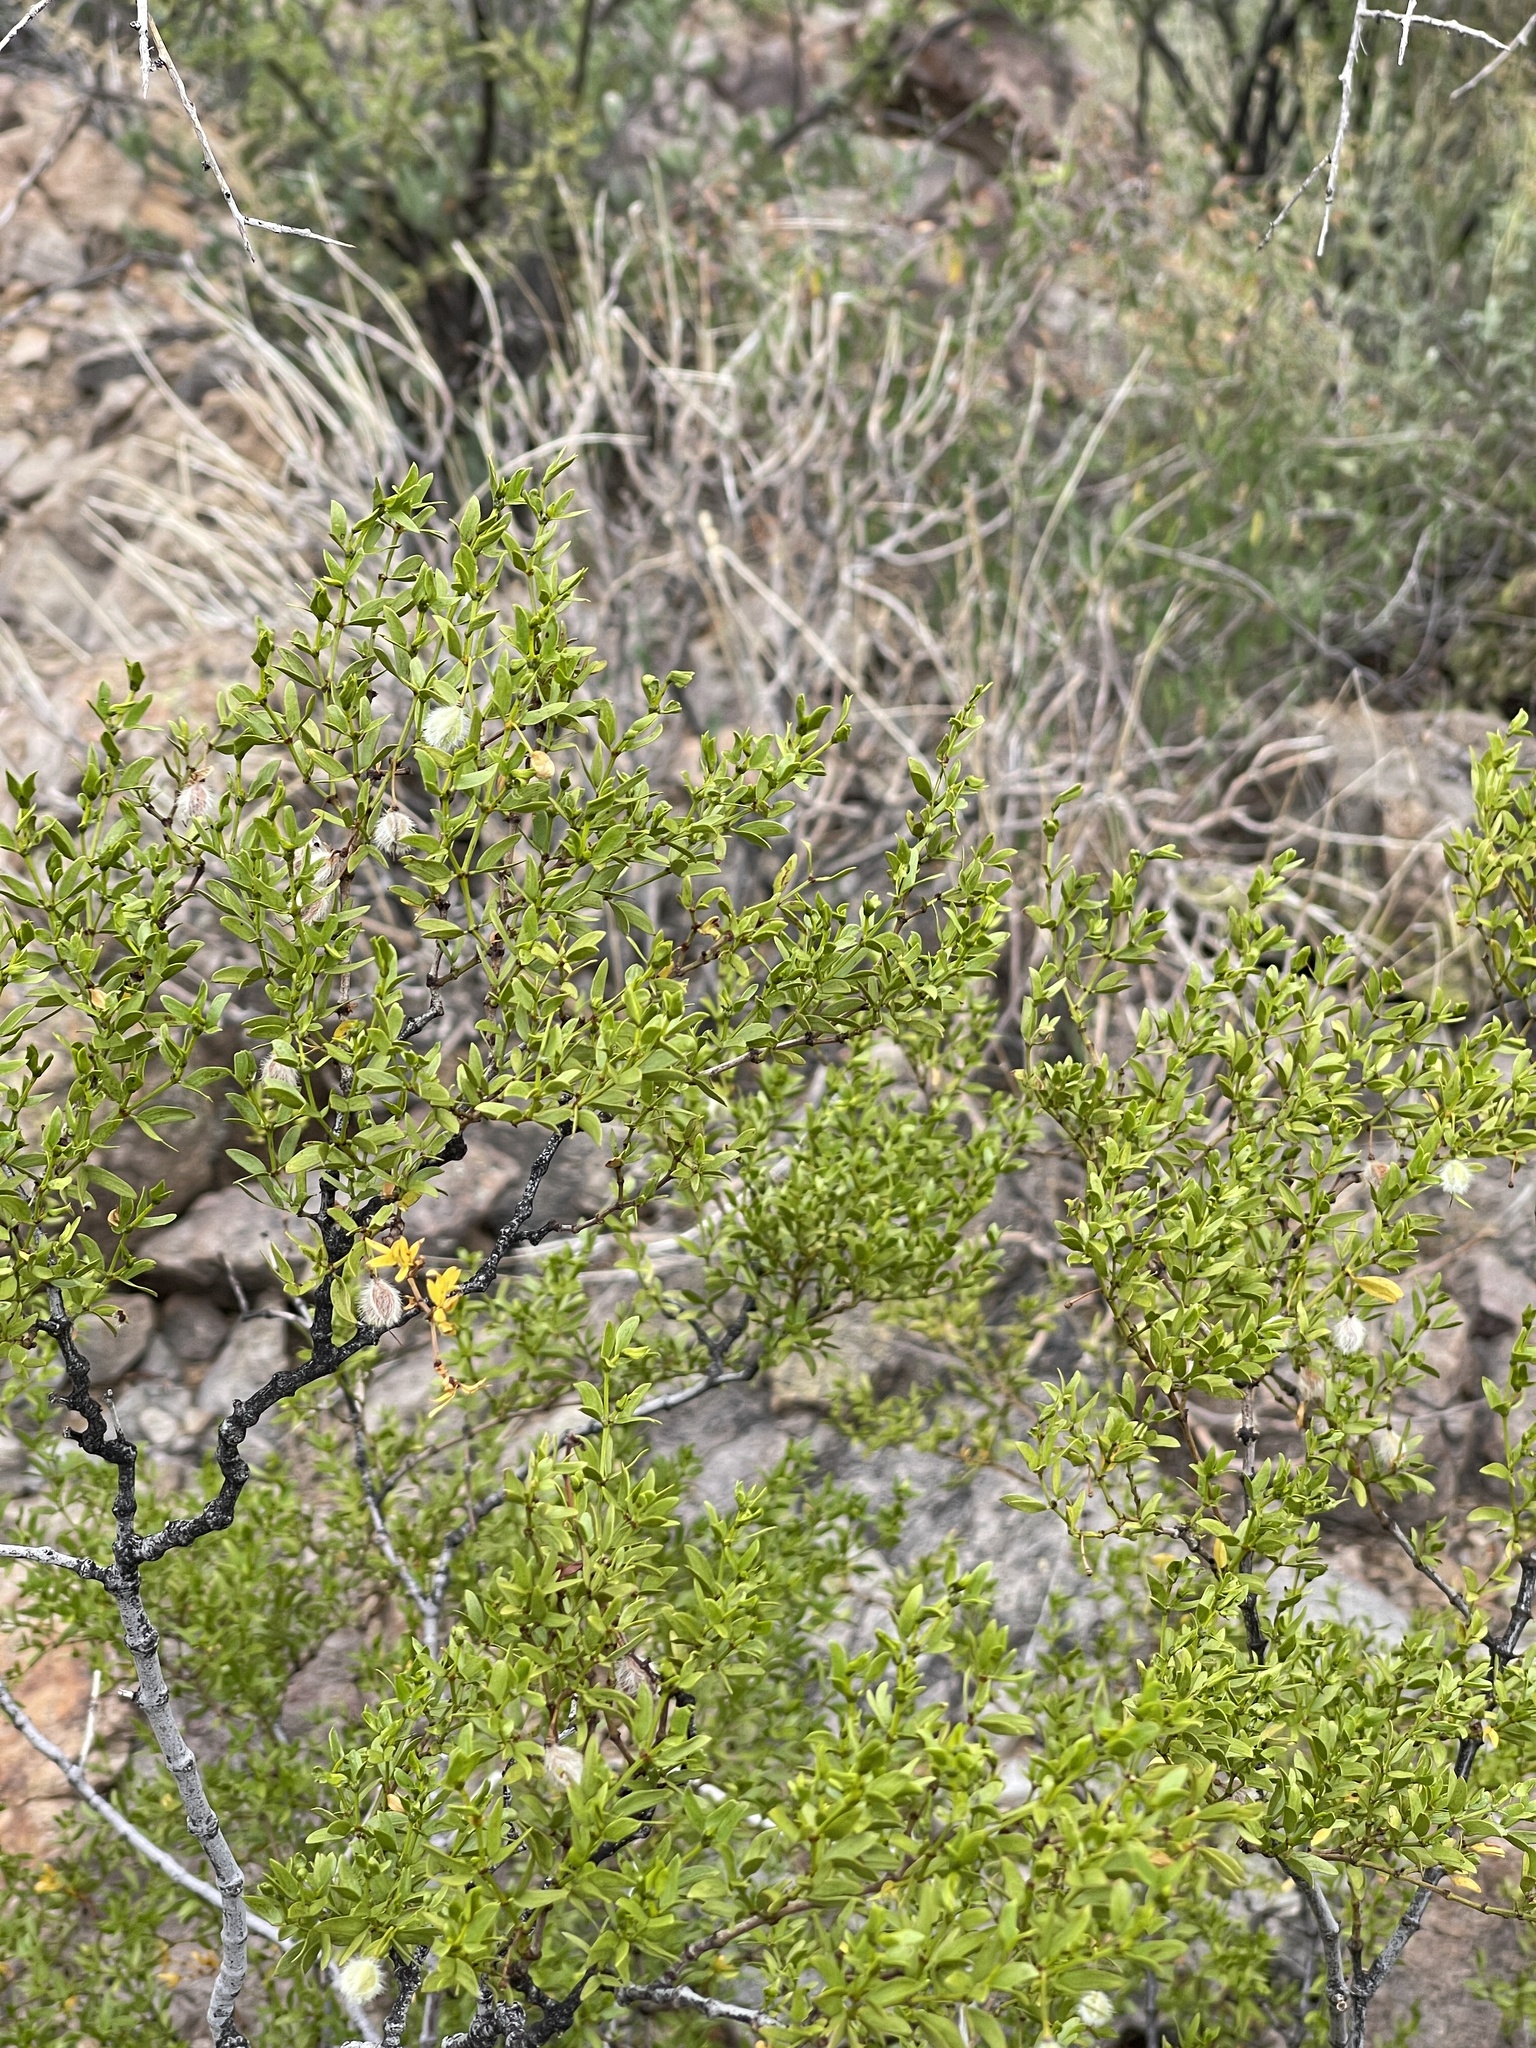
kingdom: Plantae
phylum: Tracheophyta
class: Magnoliopsida
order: Zygophyllales
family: Zygophyllaceae
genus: Larrea
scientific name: Larrea tridentata
